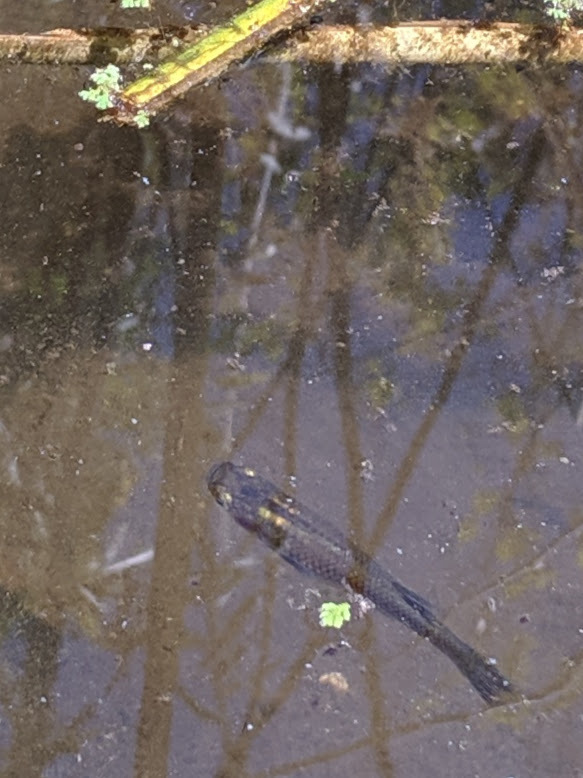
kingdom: Animalia
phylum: Chordata
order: Cyprinodontiformes
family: Poeciliidae
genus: Gambusia
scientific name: Gambusia affinis
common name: Mosquitofish
